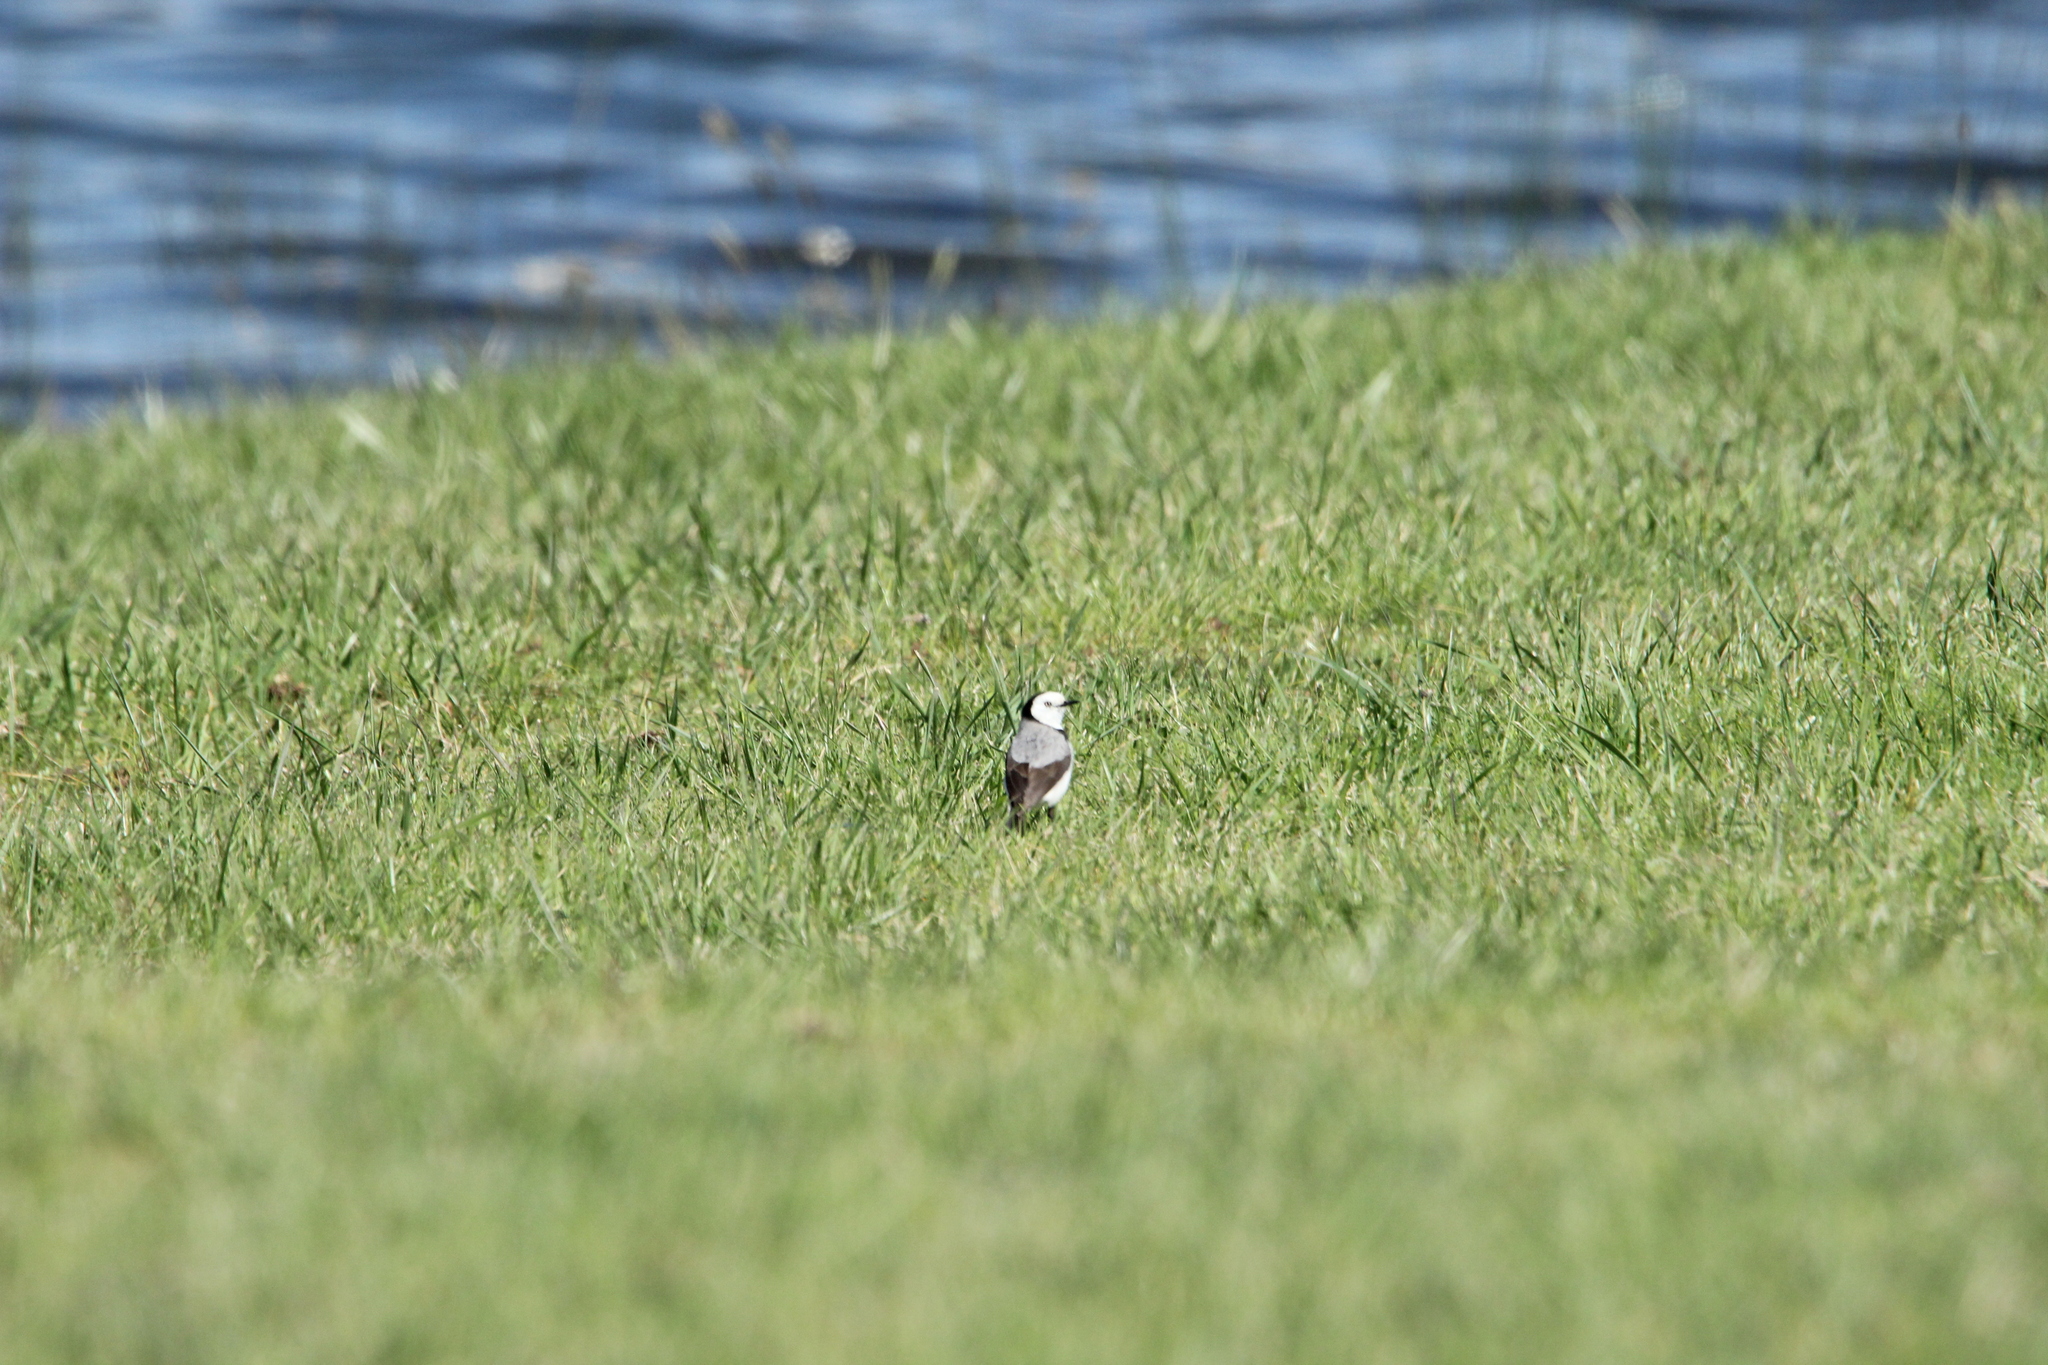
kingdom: Animalia
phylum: Chordata
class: Aves
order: Passeriformes
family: Meliphagidae
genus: Epthianura
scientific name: Epthianura albifrons
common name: White-fronted chat
